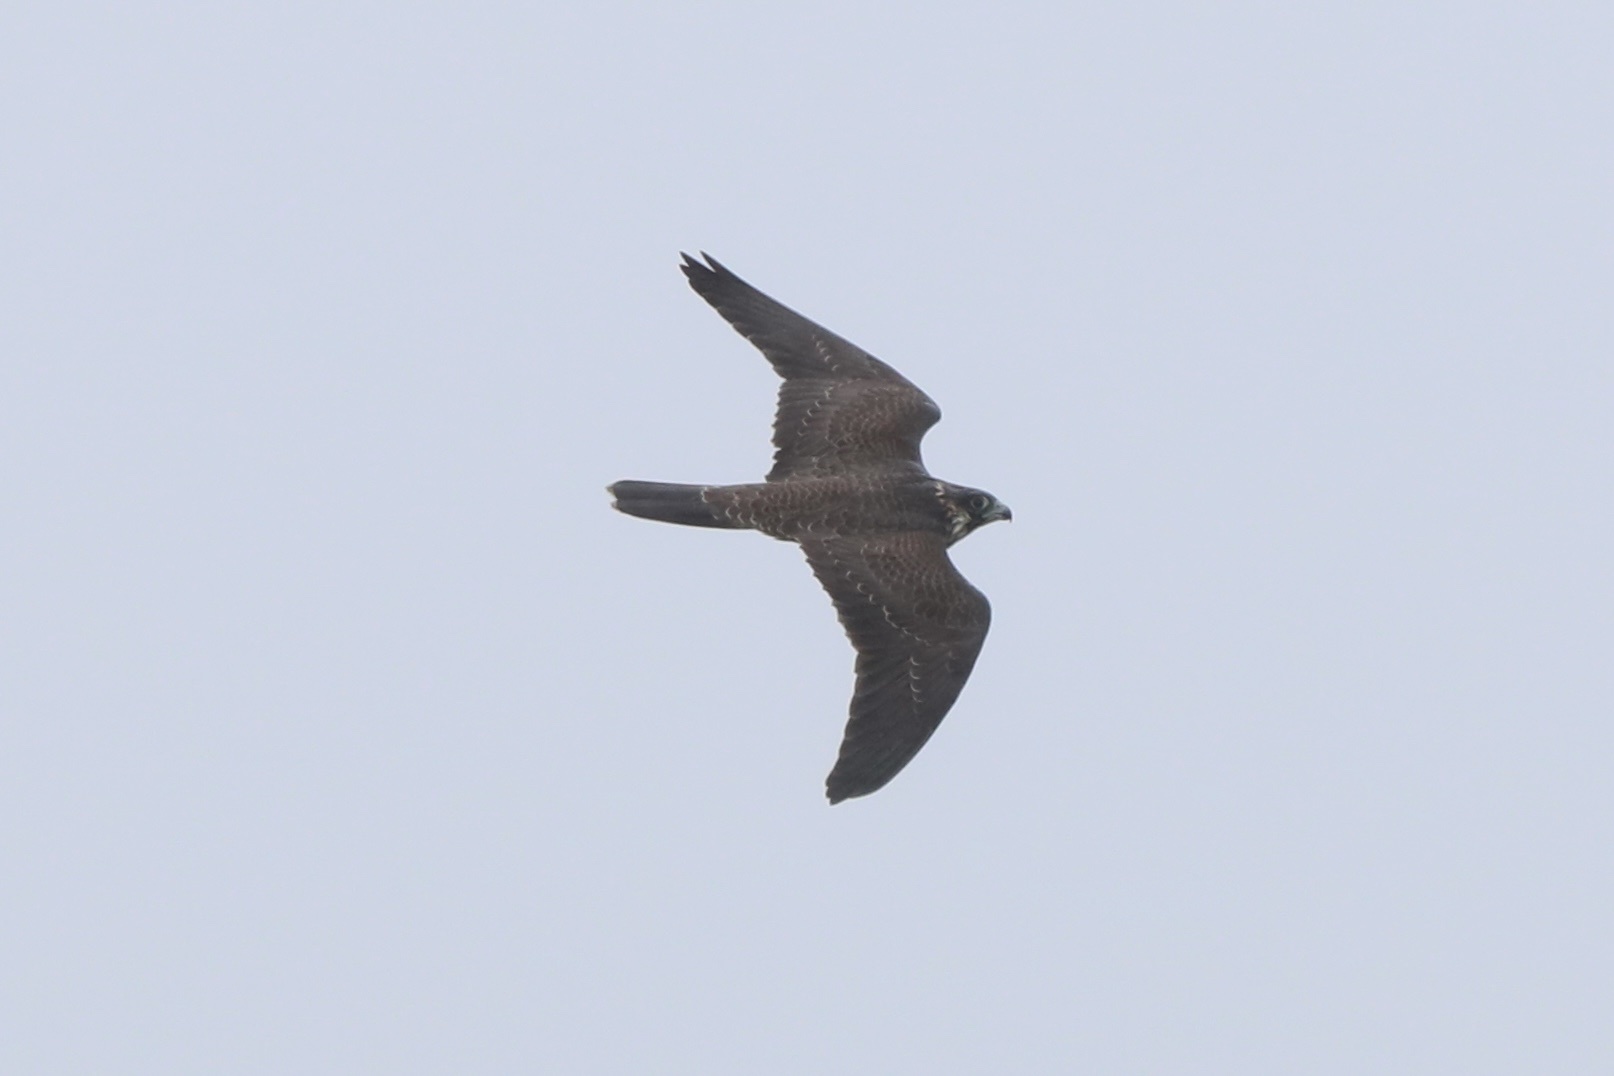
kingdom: Animalia
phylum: Chordata
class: Aves
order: Falconiformes
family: Falconidae
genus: Falco
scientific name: Falco peregrinus
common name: Peregrine falcon
